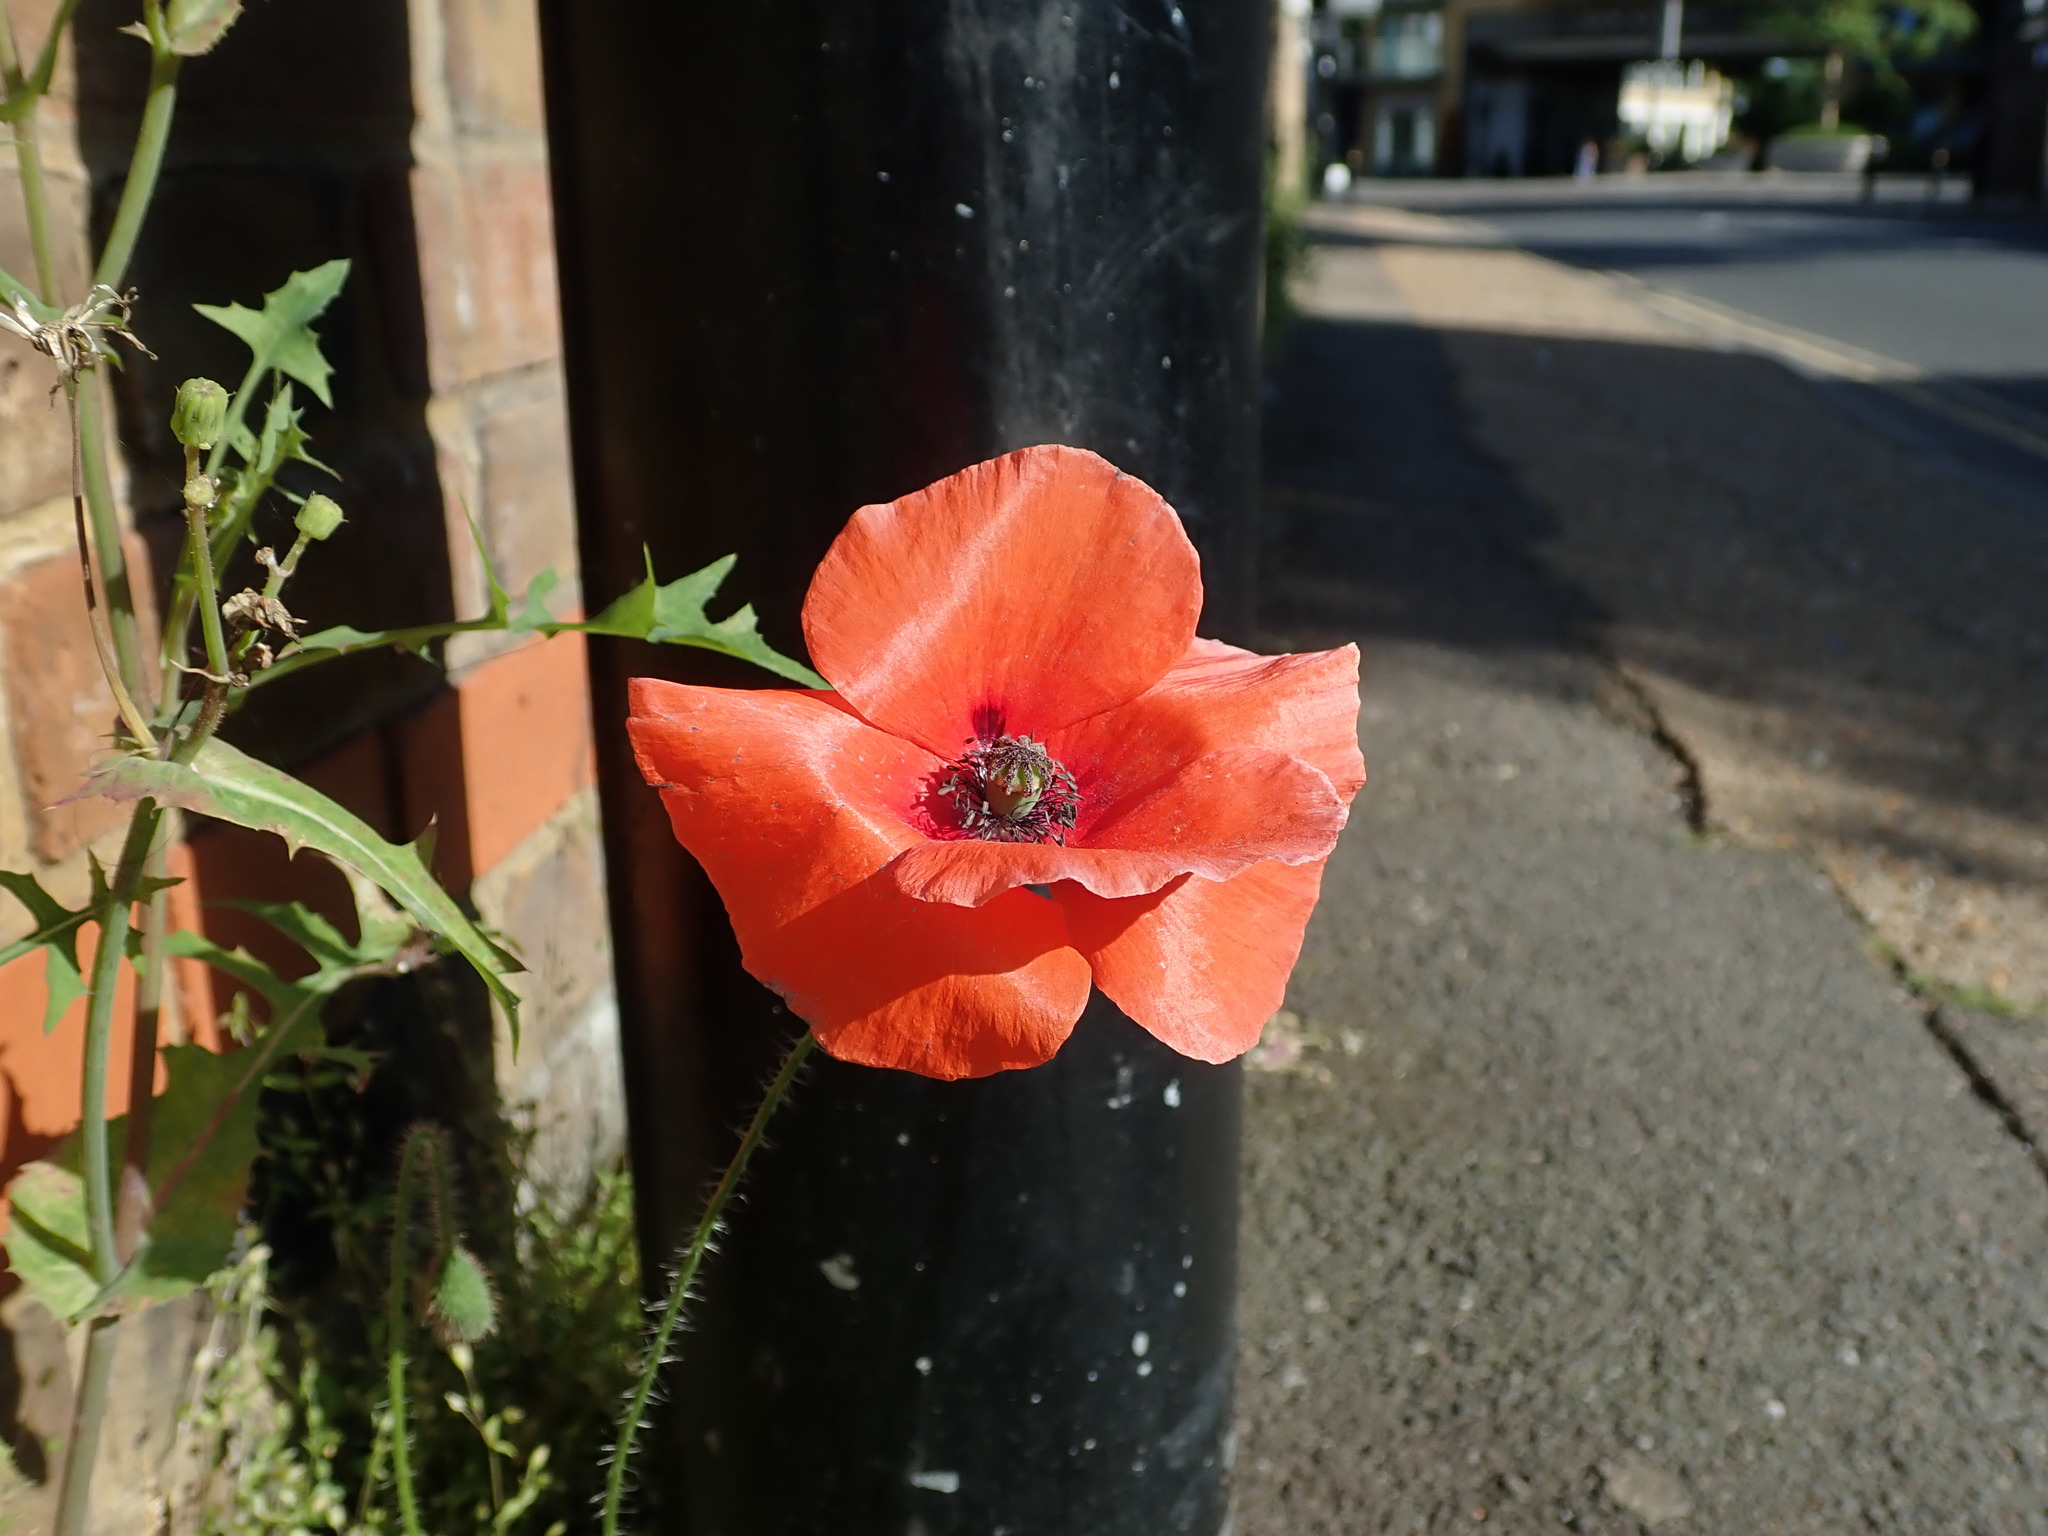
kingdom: Plantae
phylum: Tracheophyta
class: Magnoliopsida
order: Ranunculales
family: Papaveraceae
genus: Papaver
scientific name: Papaver rhoeas
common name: Corn poppy
